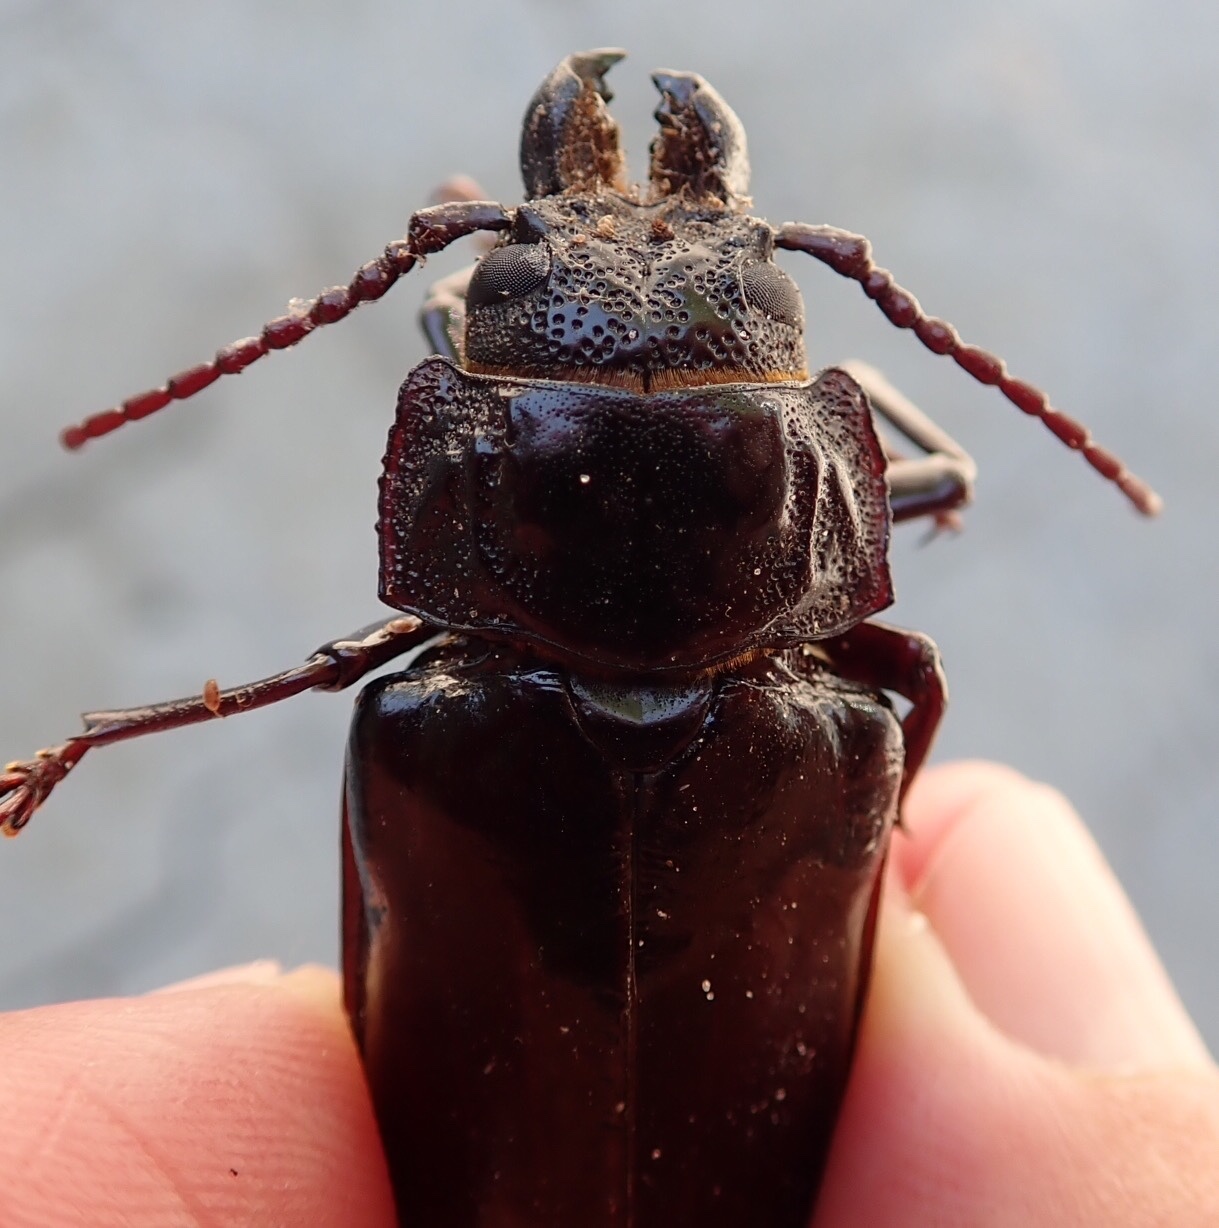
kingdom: Animalia
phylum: Arthropoda
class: Insecta
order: Coleoptera
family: Cerambycidae
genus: Mallodon
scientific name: Mallodon downesii
